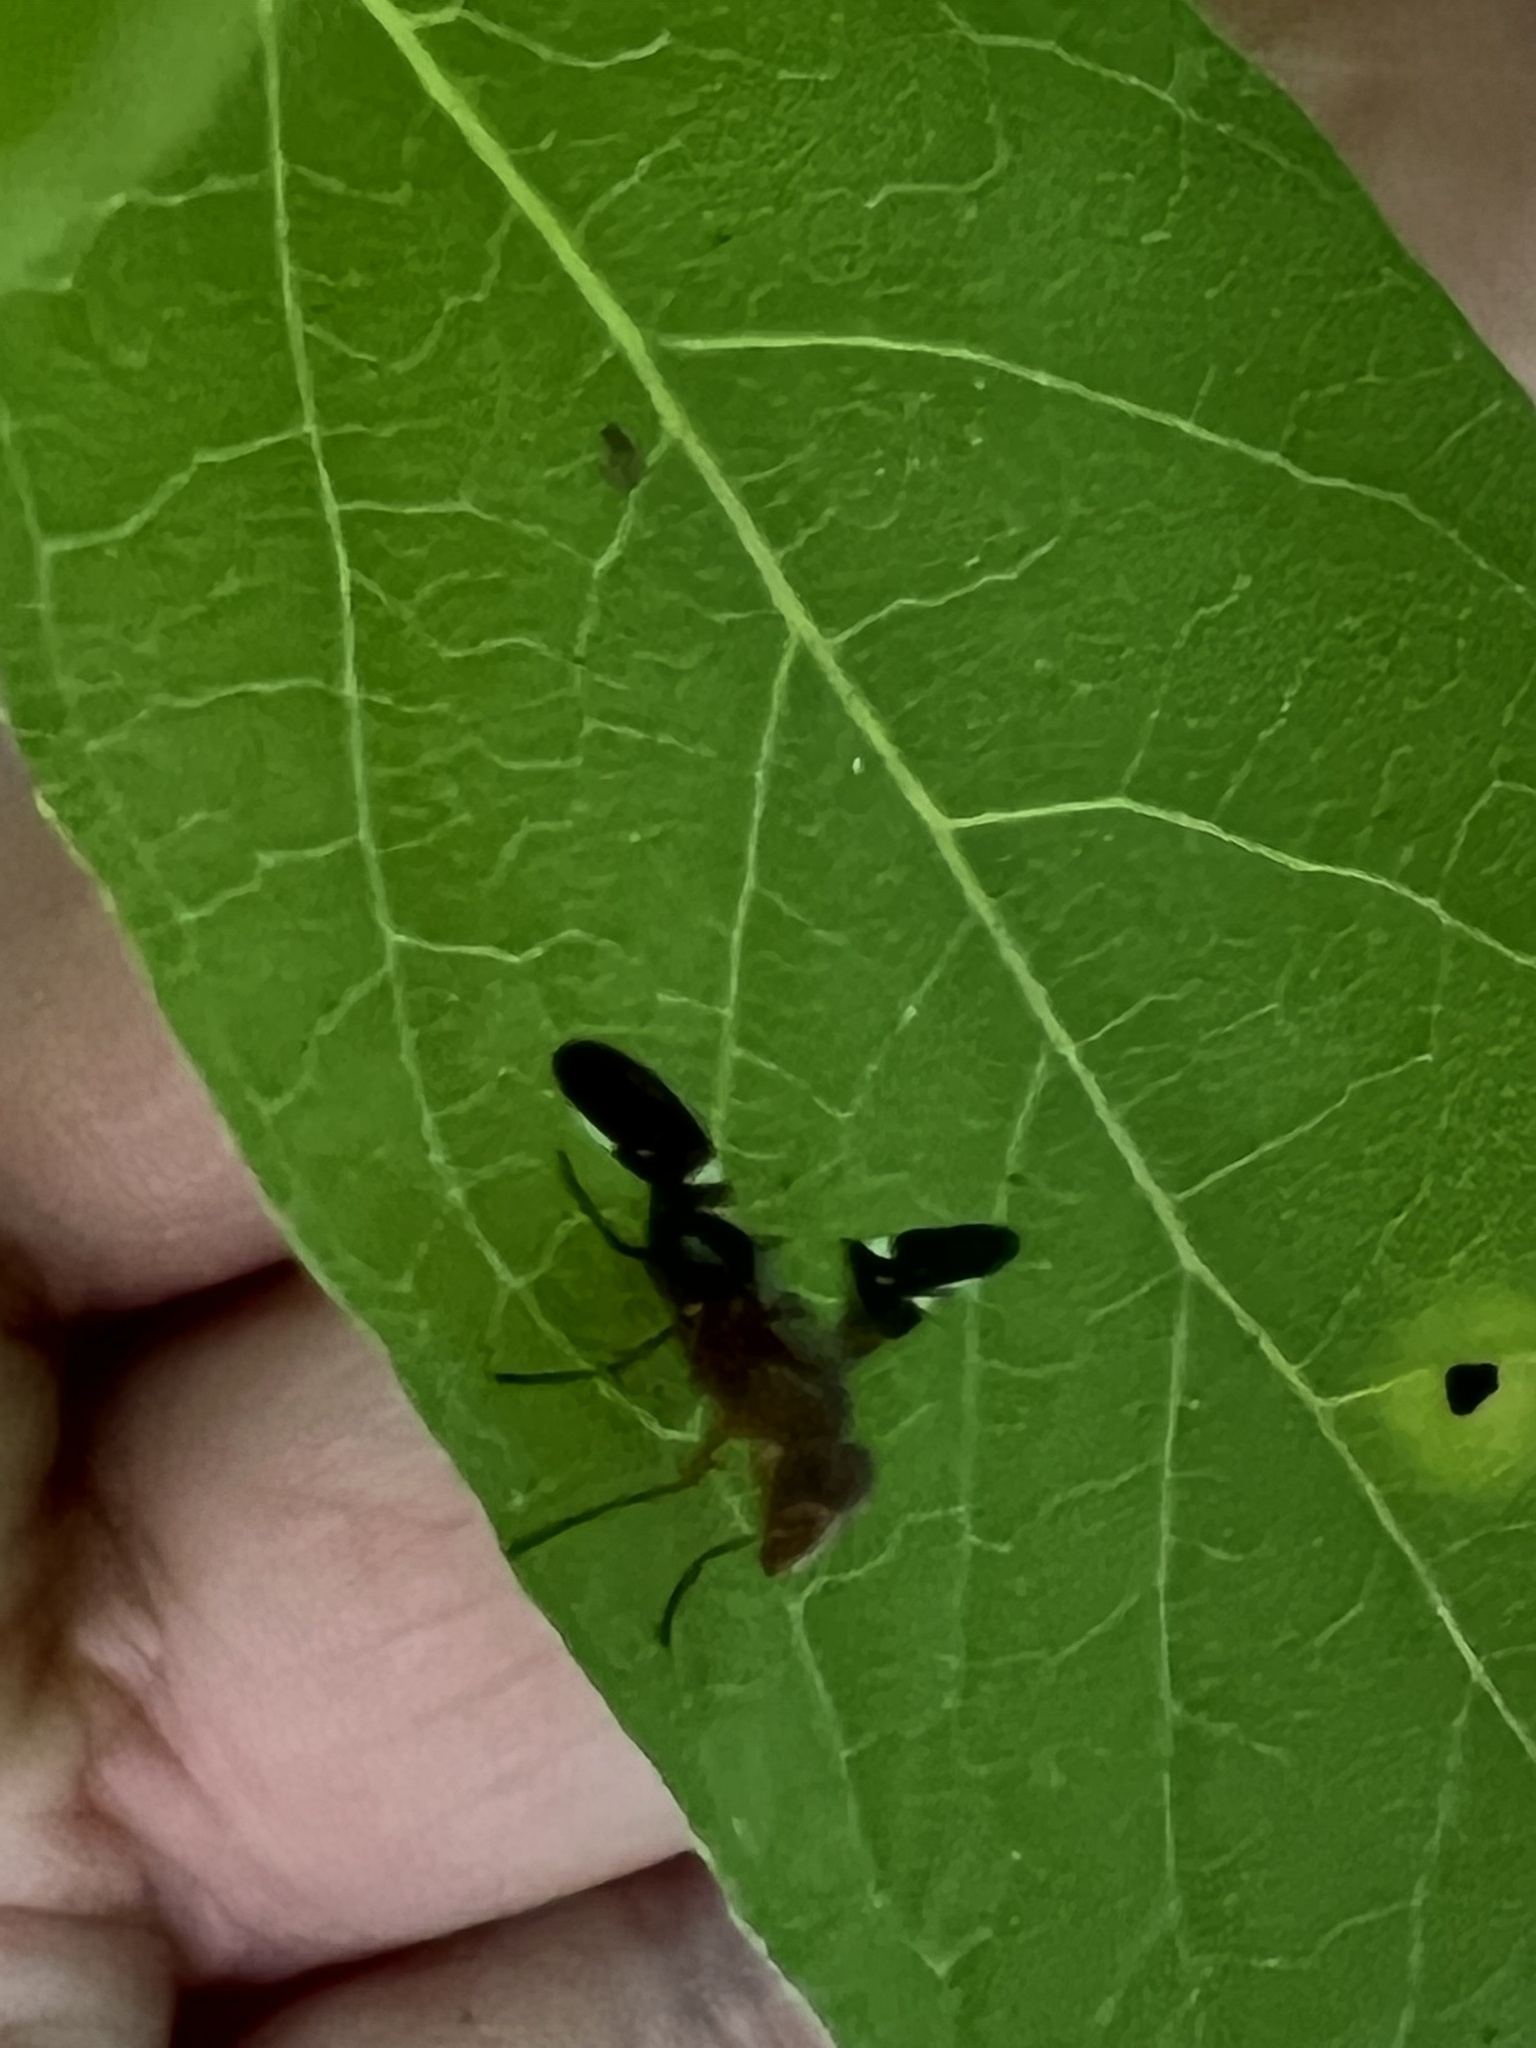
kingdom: Animalia
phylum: Arthropoda
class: Insecta
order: Diptera
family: Ulidiidae
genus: Delphinia
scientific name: Delphinia picta
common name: Common picture-winged fly
